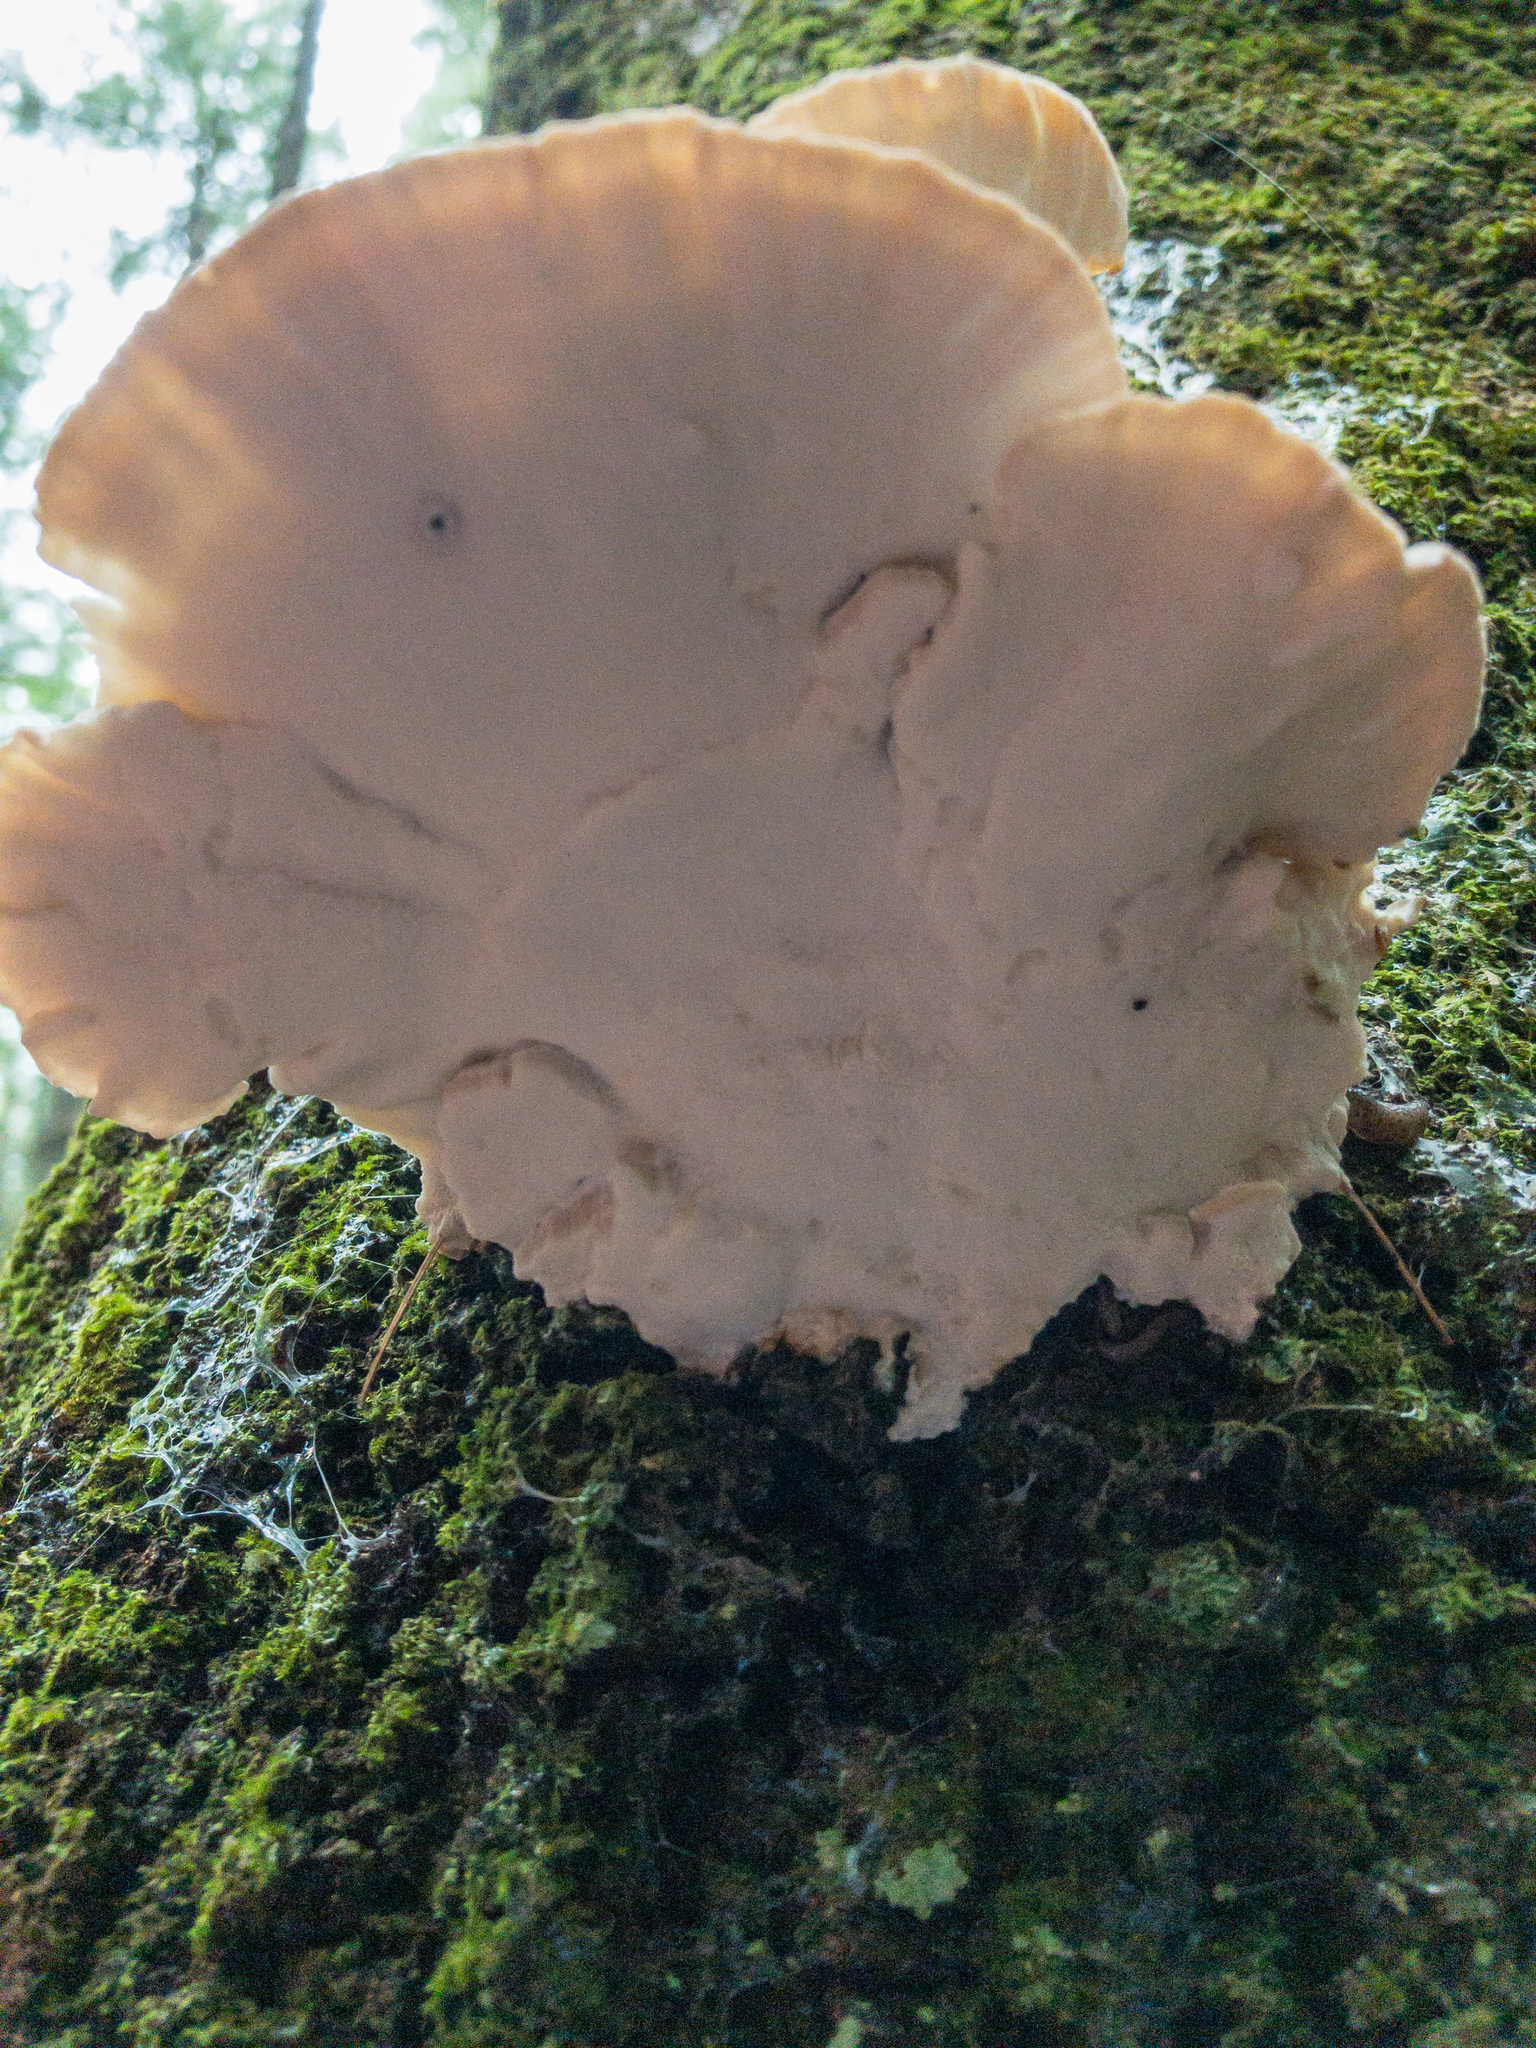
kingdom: Fungi
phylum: Basidiomycota
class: Agaricomycetes
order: Polyporales
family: Fomitopsidaceae
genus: Niveoporofomes
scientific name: Niveoporofomes spraguei
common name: Green cheese polypore
